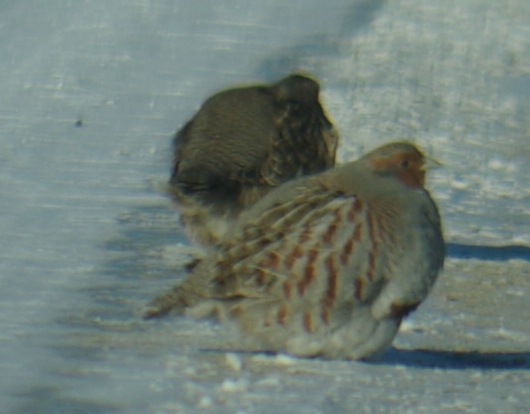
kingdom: Animalia
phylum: Chordata
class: Aves
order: Galliformes
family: Phasianidae
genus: Perdix
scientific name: Perdix perdix
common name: Grey partridge
